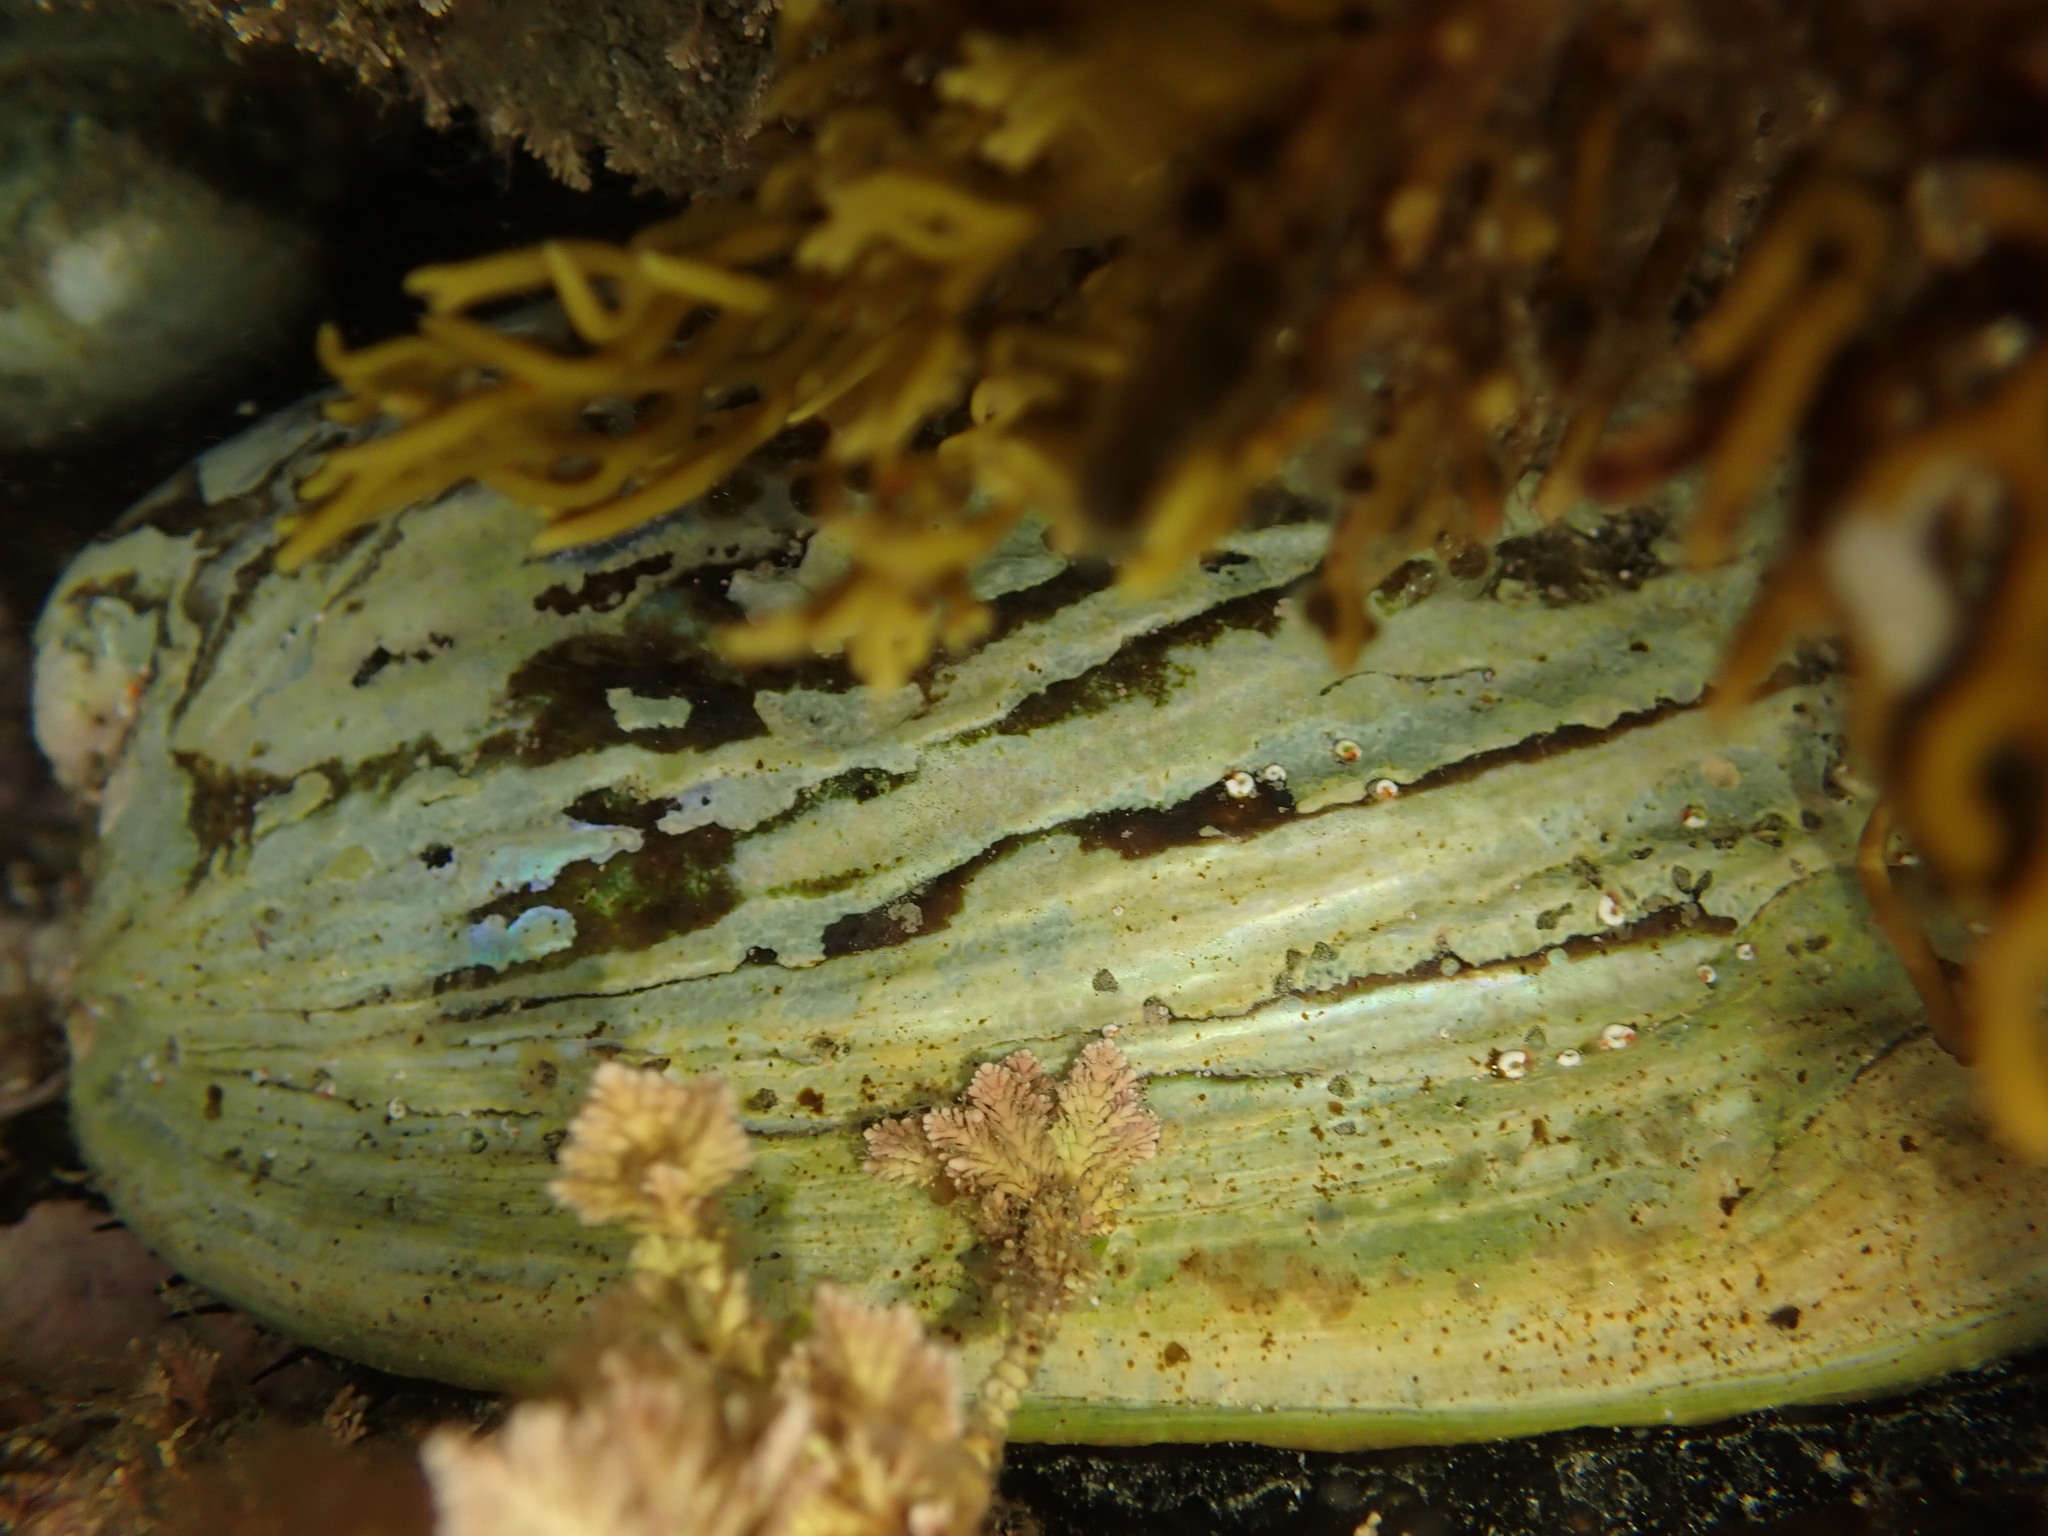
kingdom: Animalia
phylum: Mollusca
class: Gastropoda
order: Lepetellida
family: Haliotidae
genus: Haliotis
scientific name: Haliotis iris
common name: Abalone
